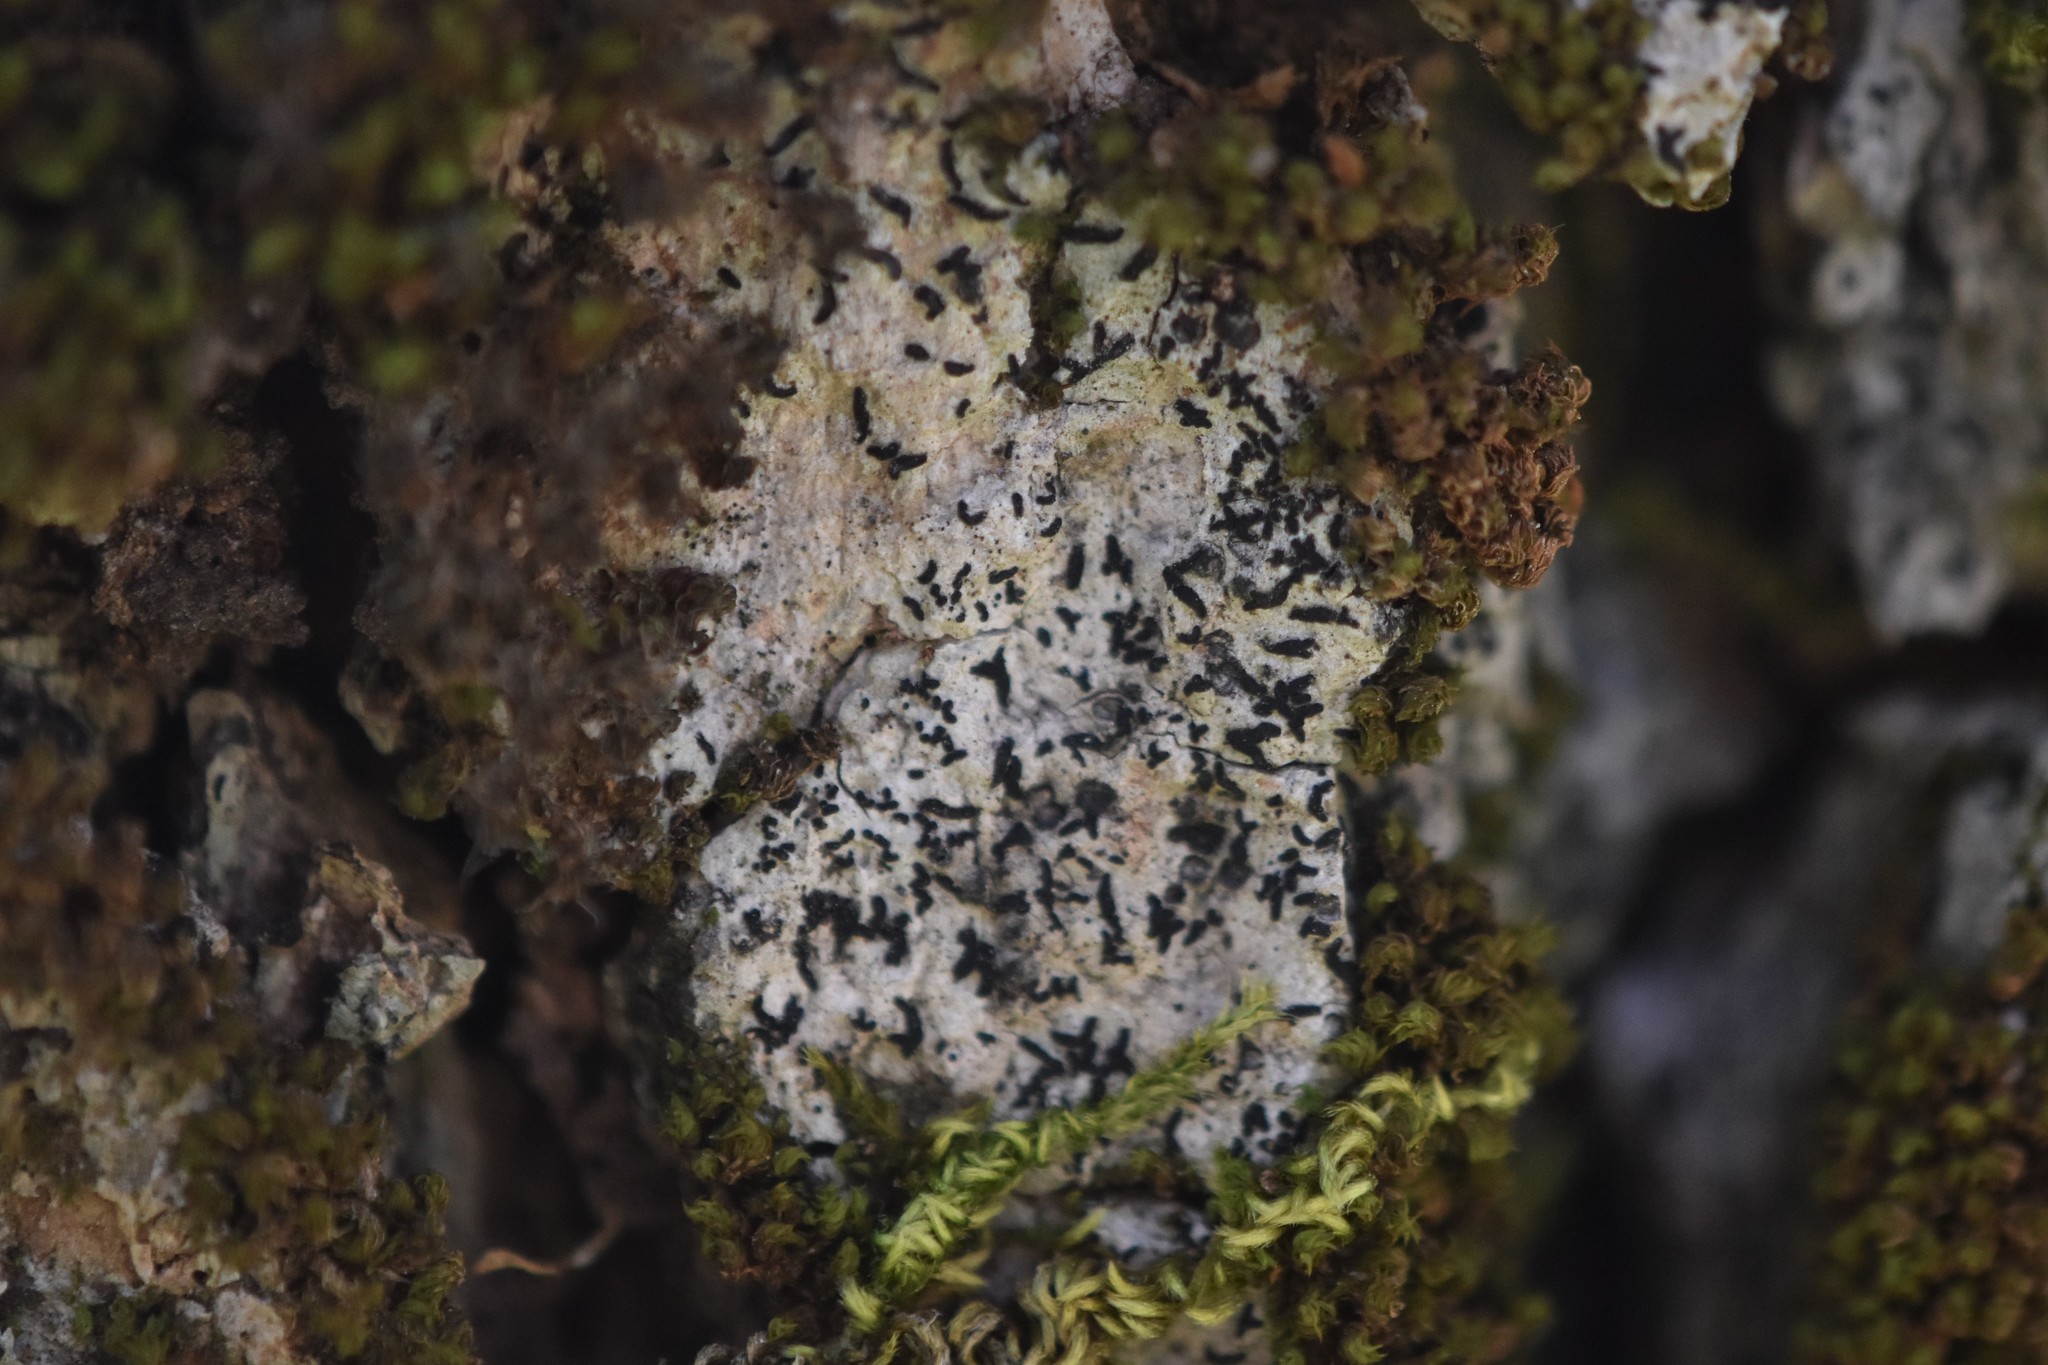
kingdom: Fungi
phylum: Ascomycota
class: Arthoniomycetes
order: Arthoniales
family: Lecanographaceae
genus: Alyxoria
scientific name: Alyxoria varia
